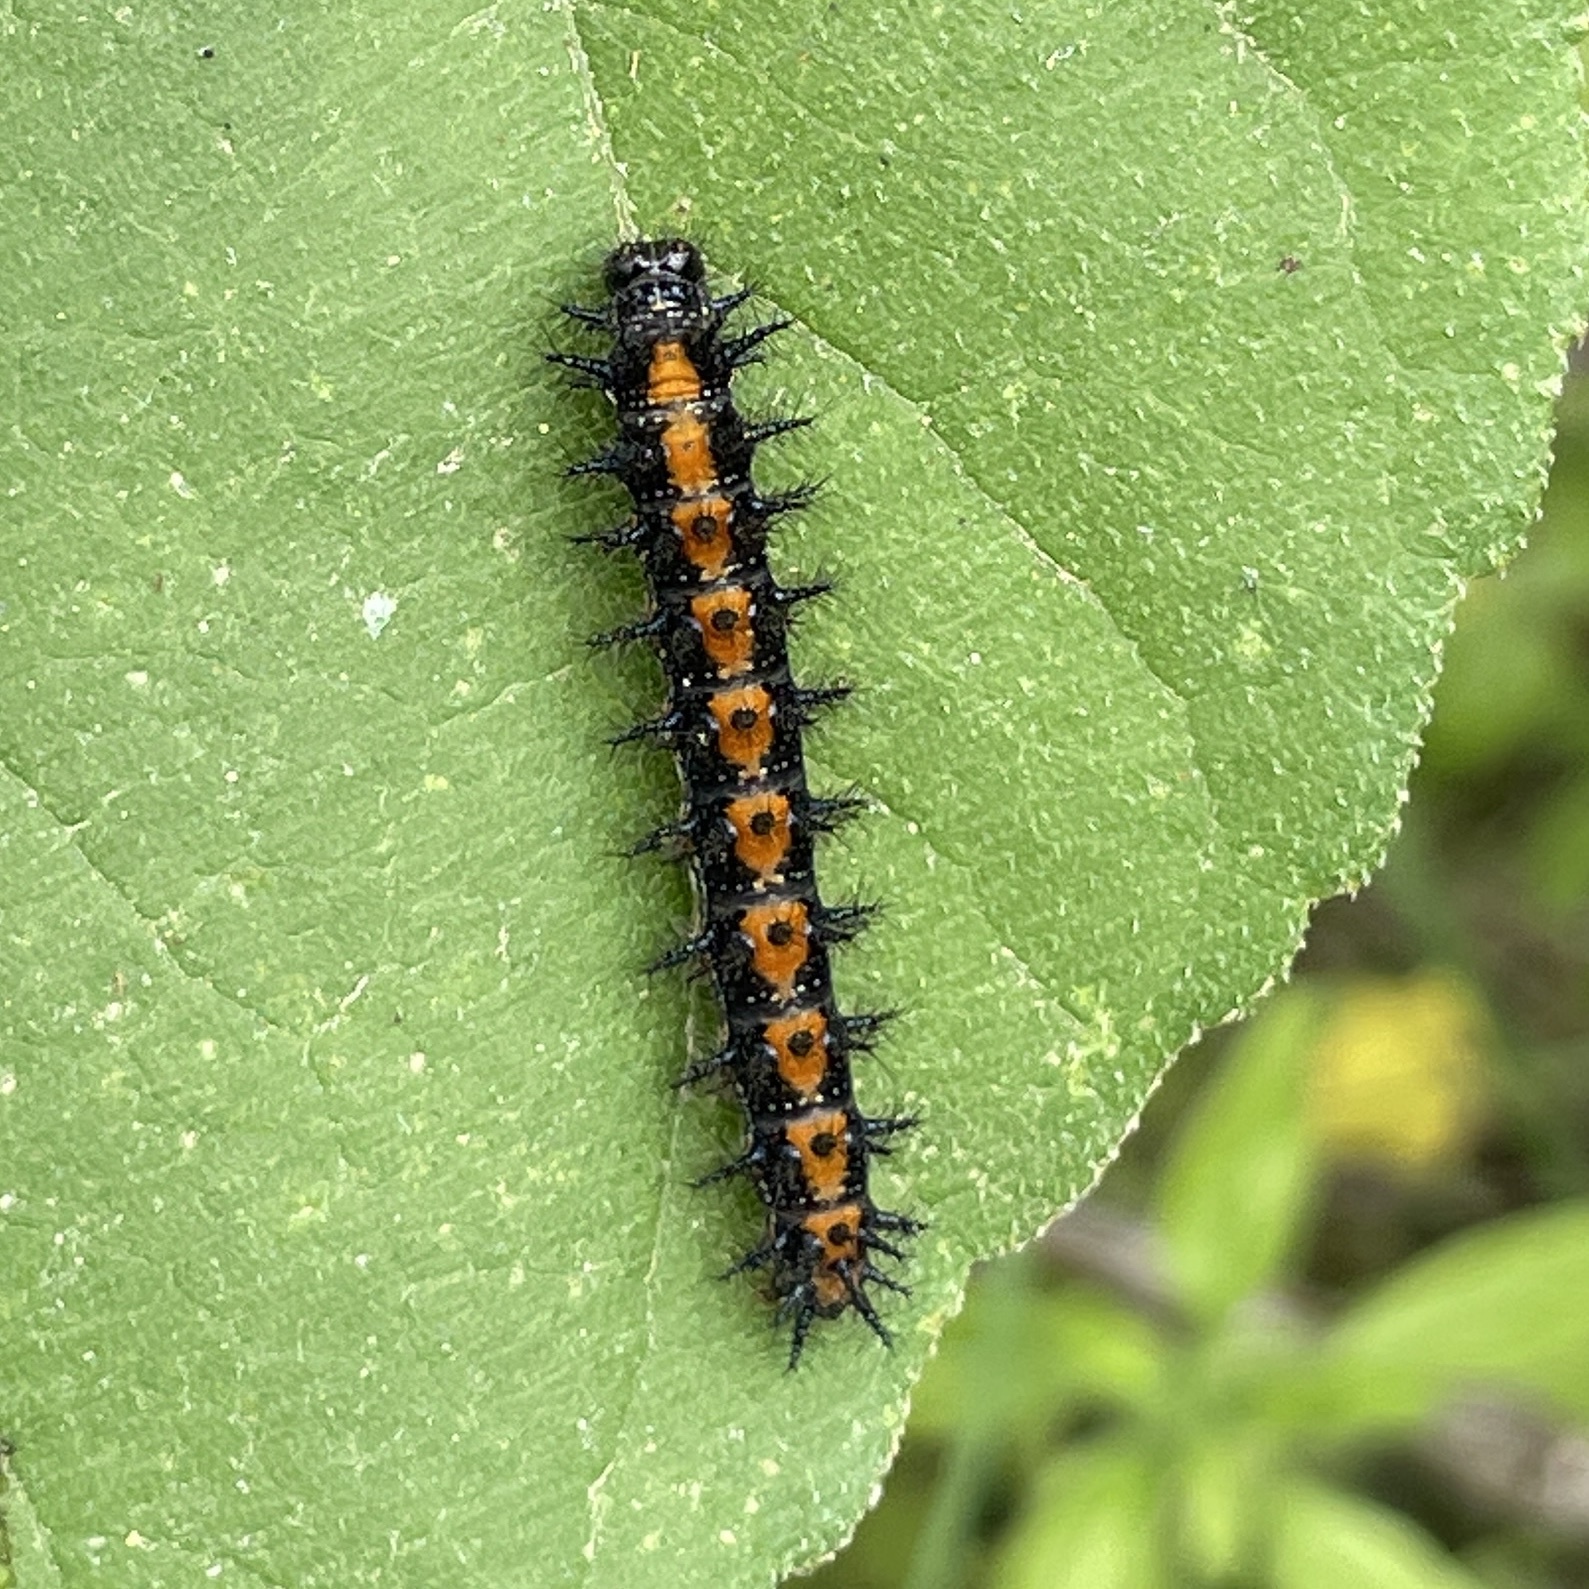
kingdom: Animalia
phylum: Arthropoda
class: Insecta
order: Lepidoptera
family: Nymphalidae
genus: Chlosyne
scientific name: Chlosyne lacinia
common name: Bordered patch
